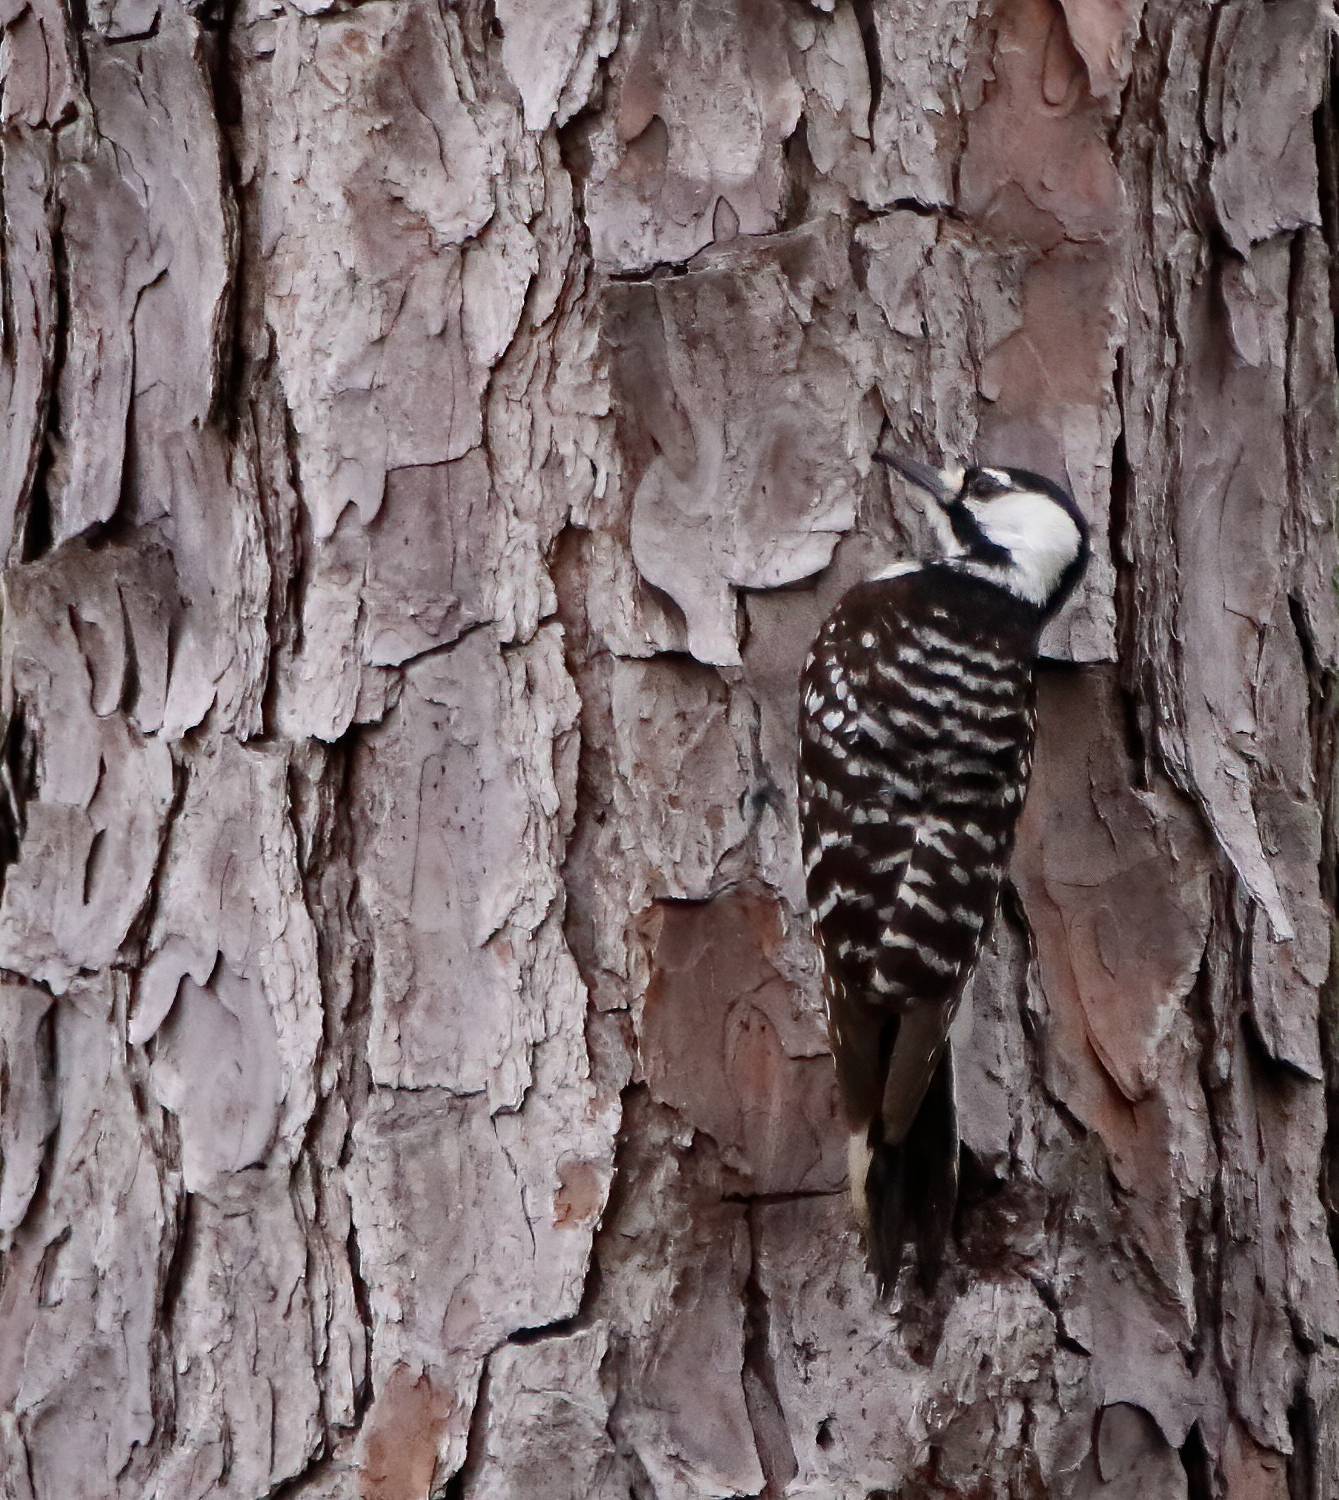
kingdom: Animalia
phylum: Chordata
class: Aves
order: Piciformes
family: Picidae
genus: Leuconotopicus
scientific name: Leuconotopicus borealis
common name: Red-cockaded woodpecker
